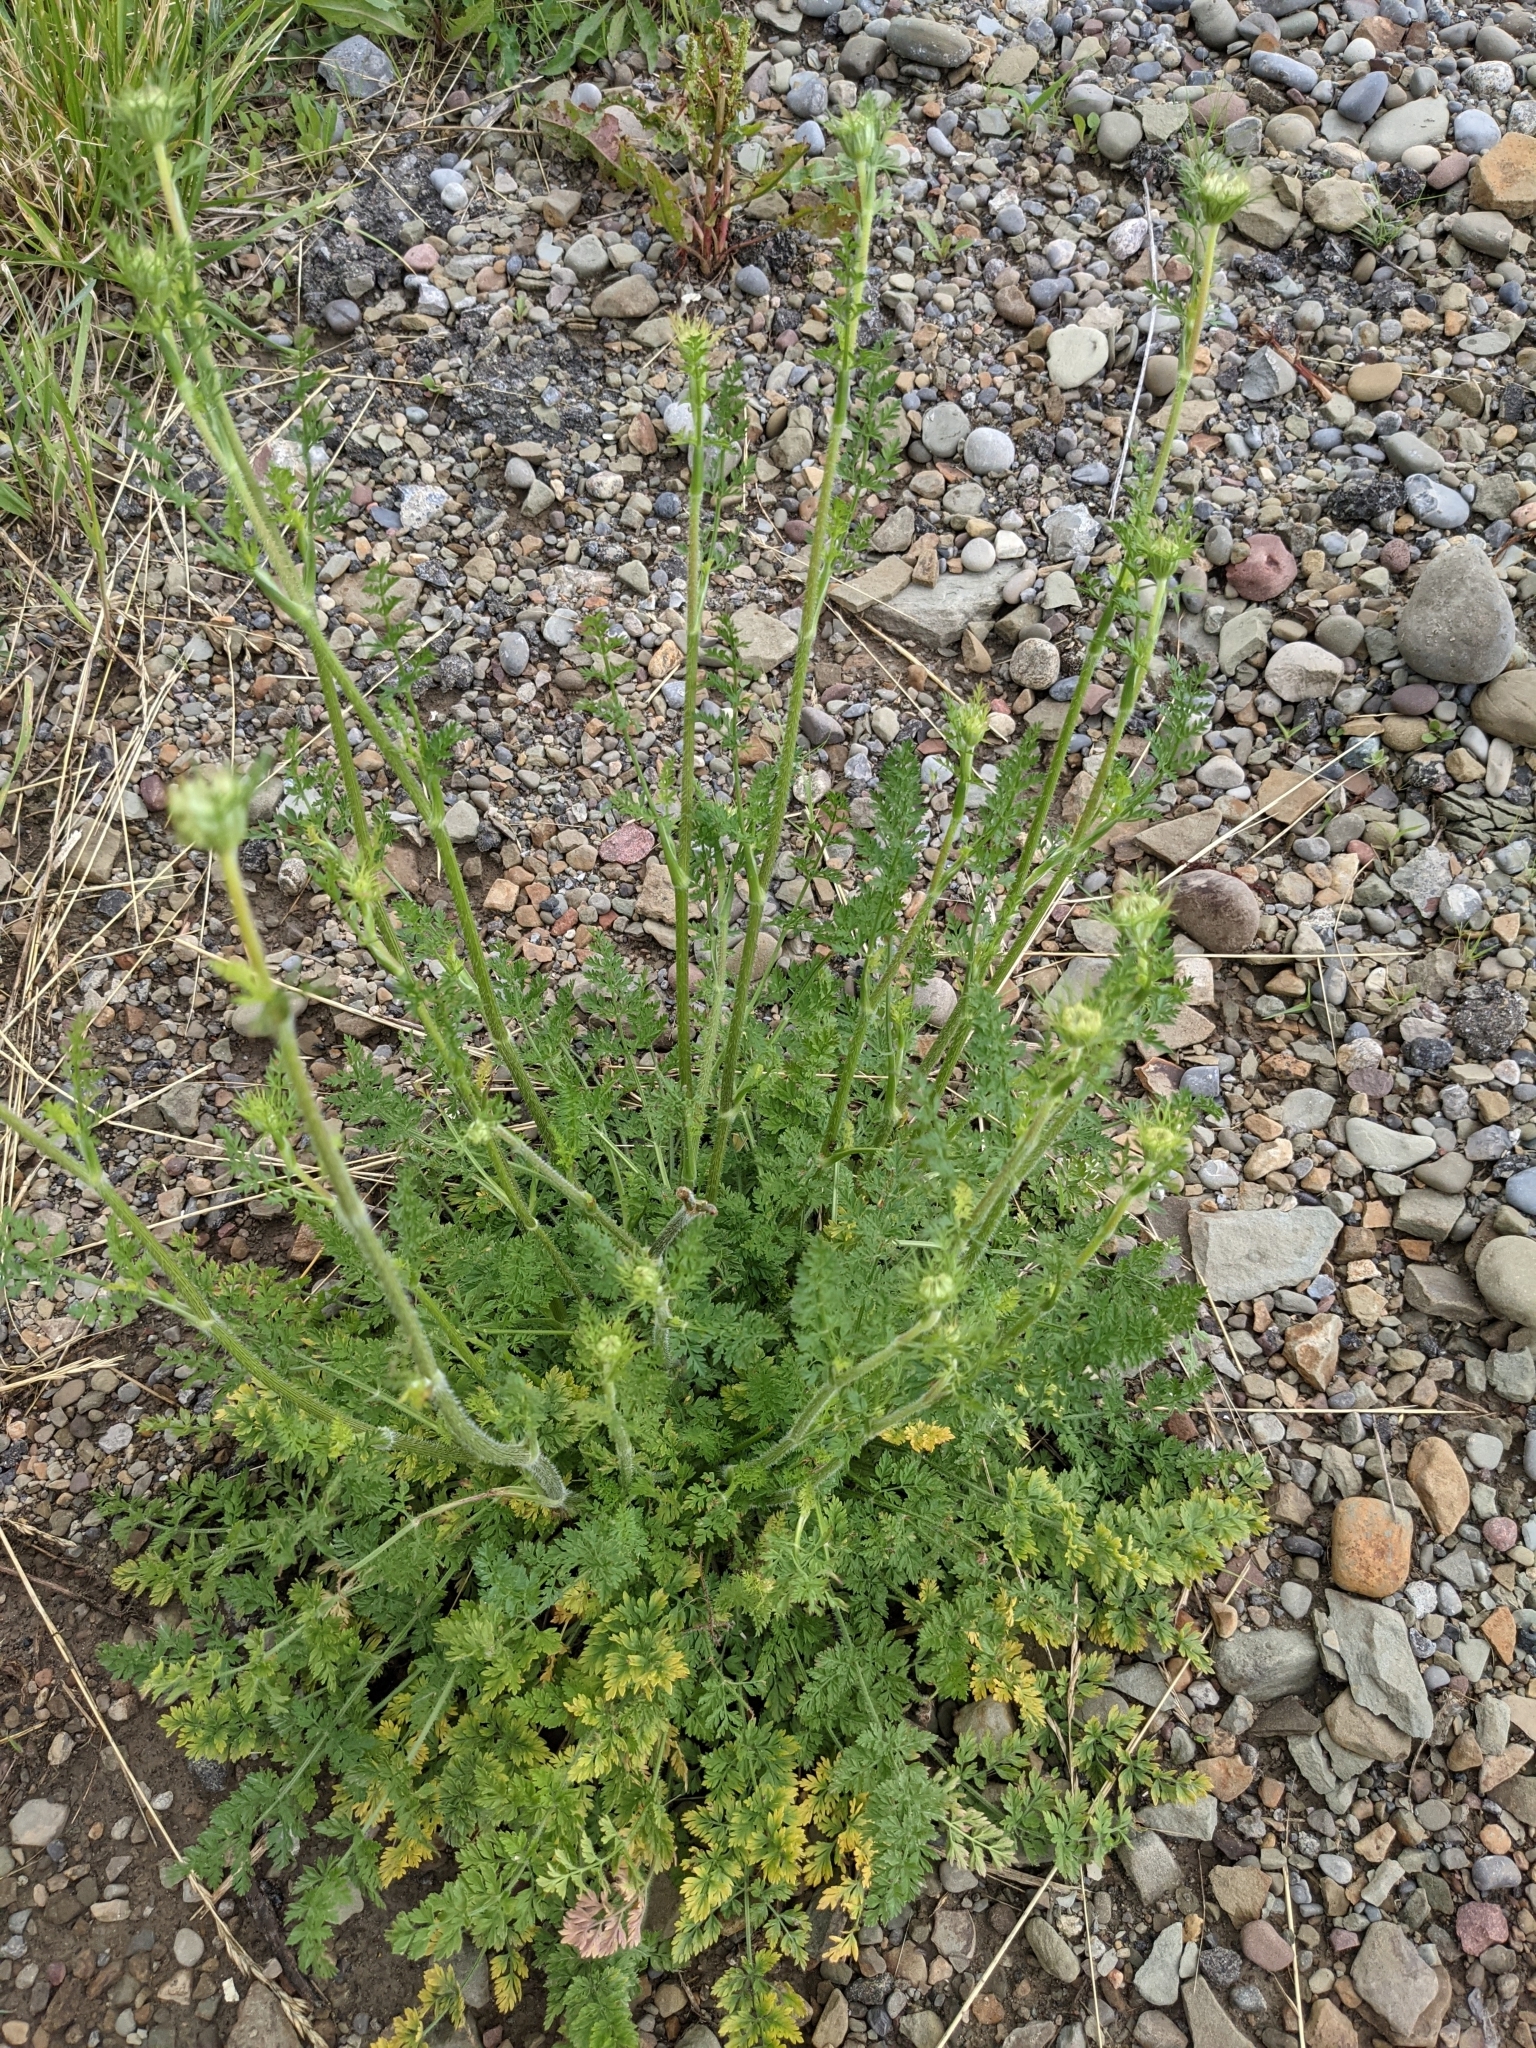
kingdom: Plantae
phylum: Tracheophyta
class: Magnoliopsida
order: Apiales
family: Apiaceae
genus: Daucus
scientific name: Daucus carota
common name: Wild carrot
